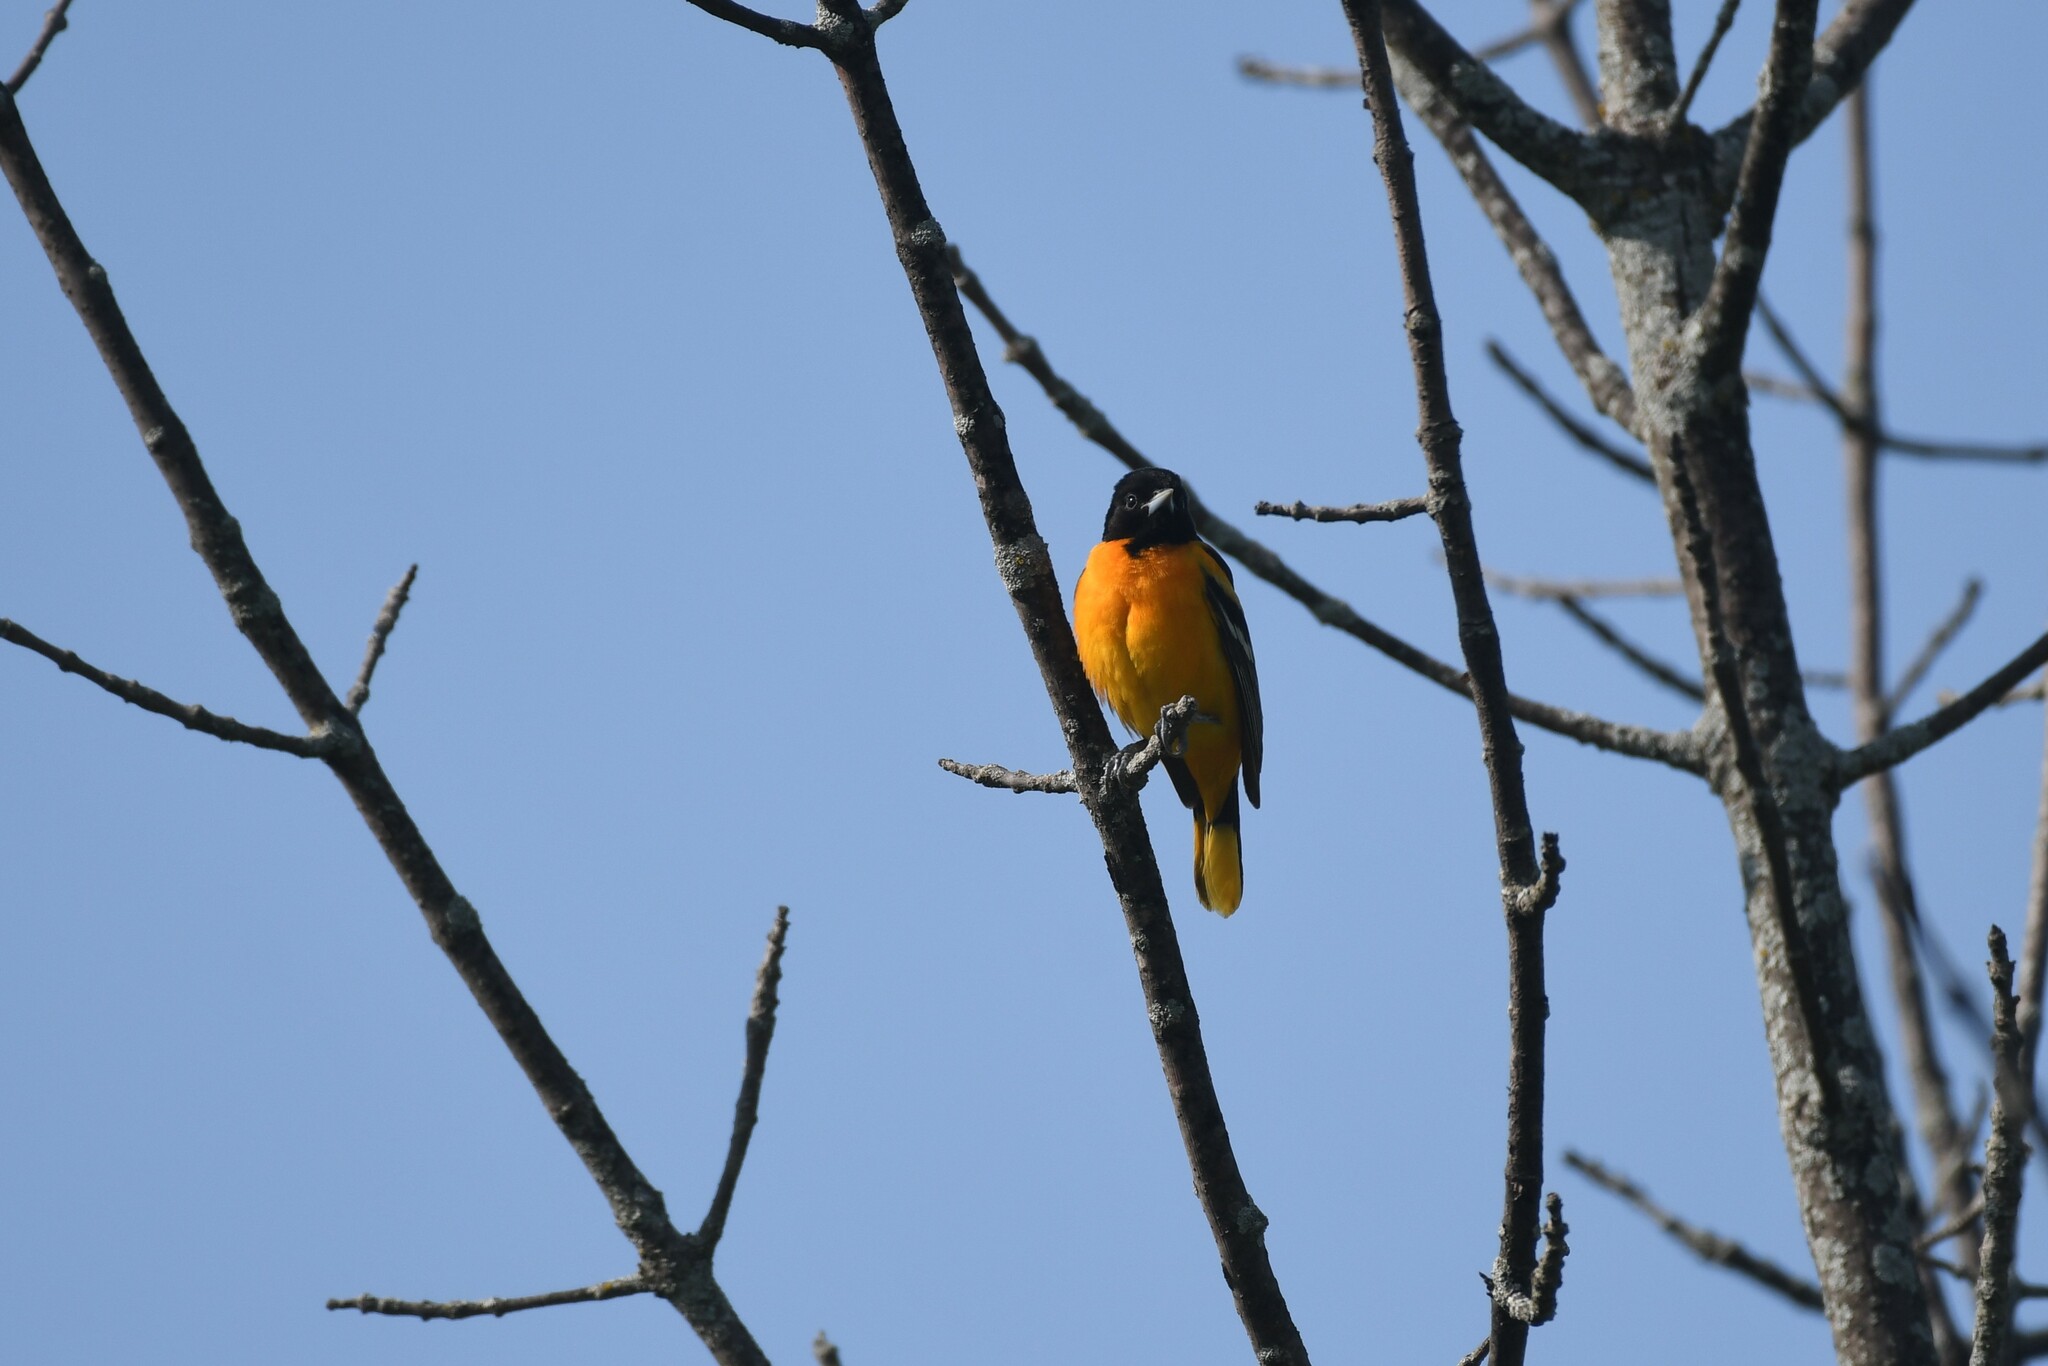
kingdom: Animalia
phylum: Chordata
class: Aves
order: Passeriformes
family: Icteridae
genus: Icterus
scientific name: Icterus galbula
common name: Baltimore oriole
